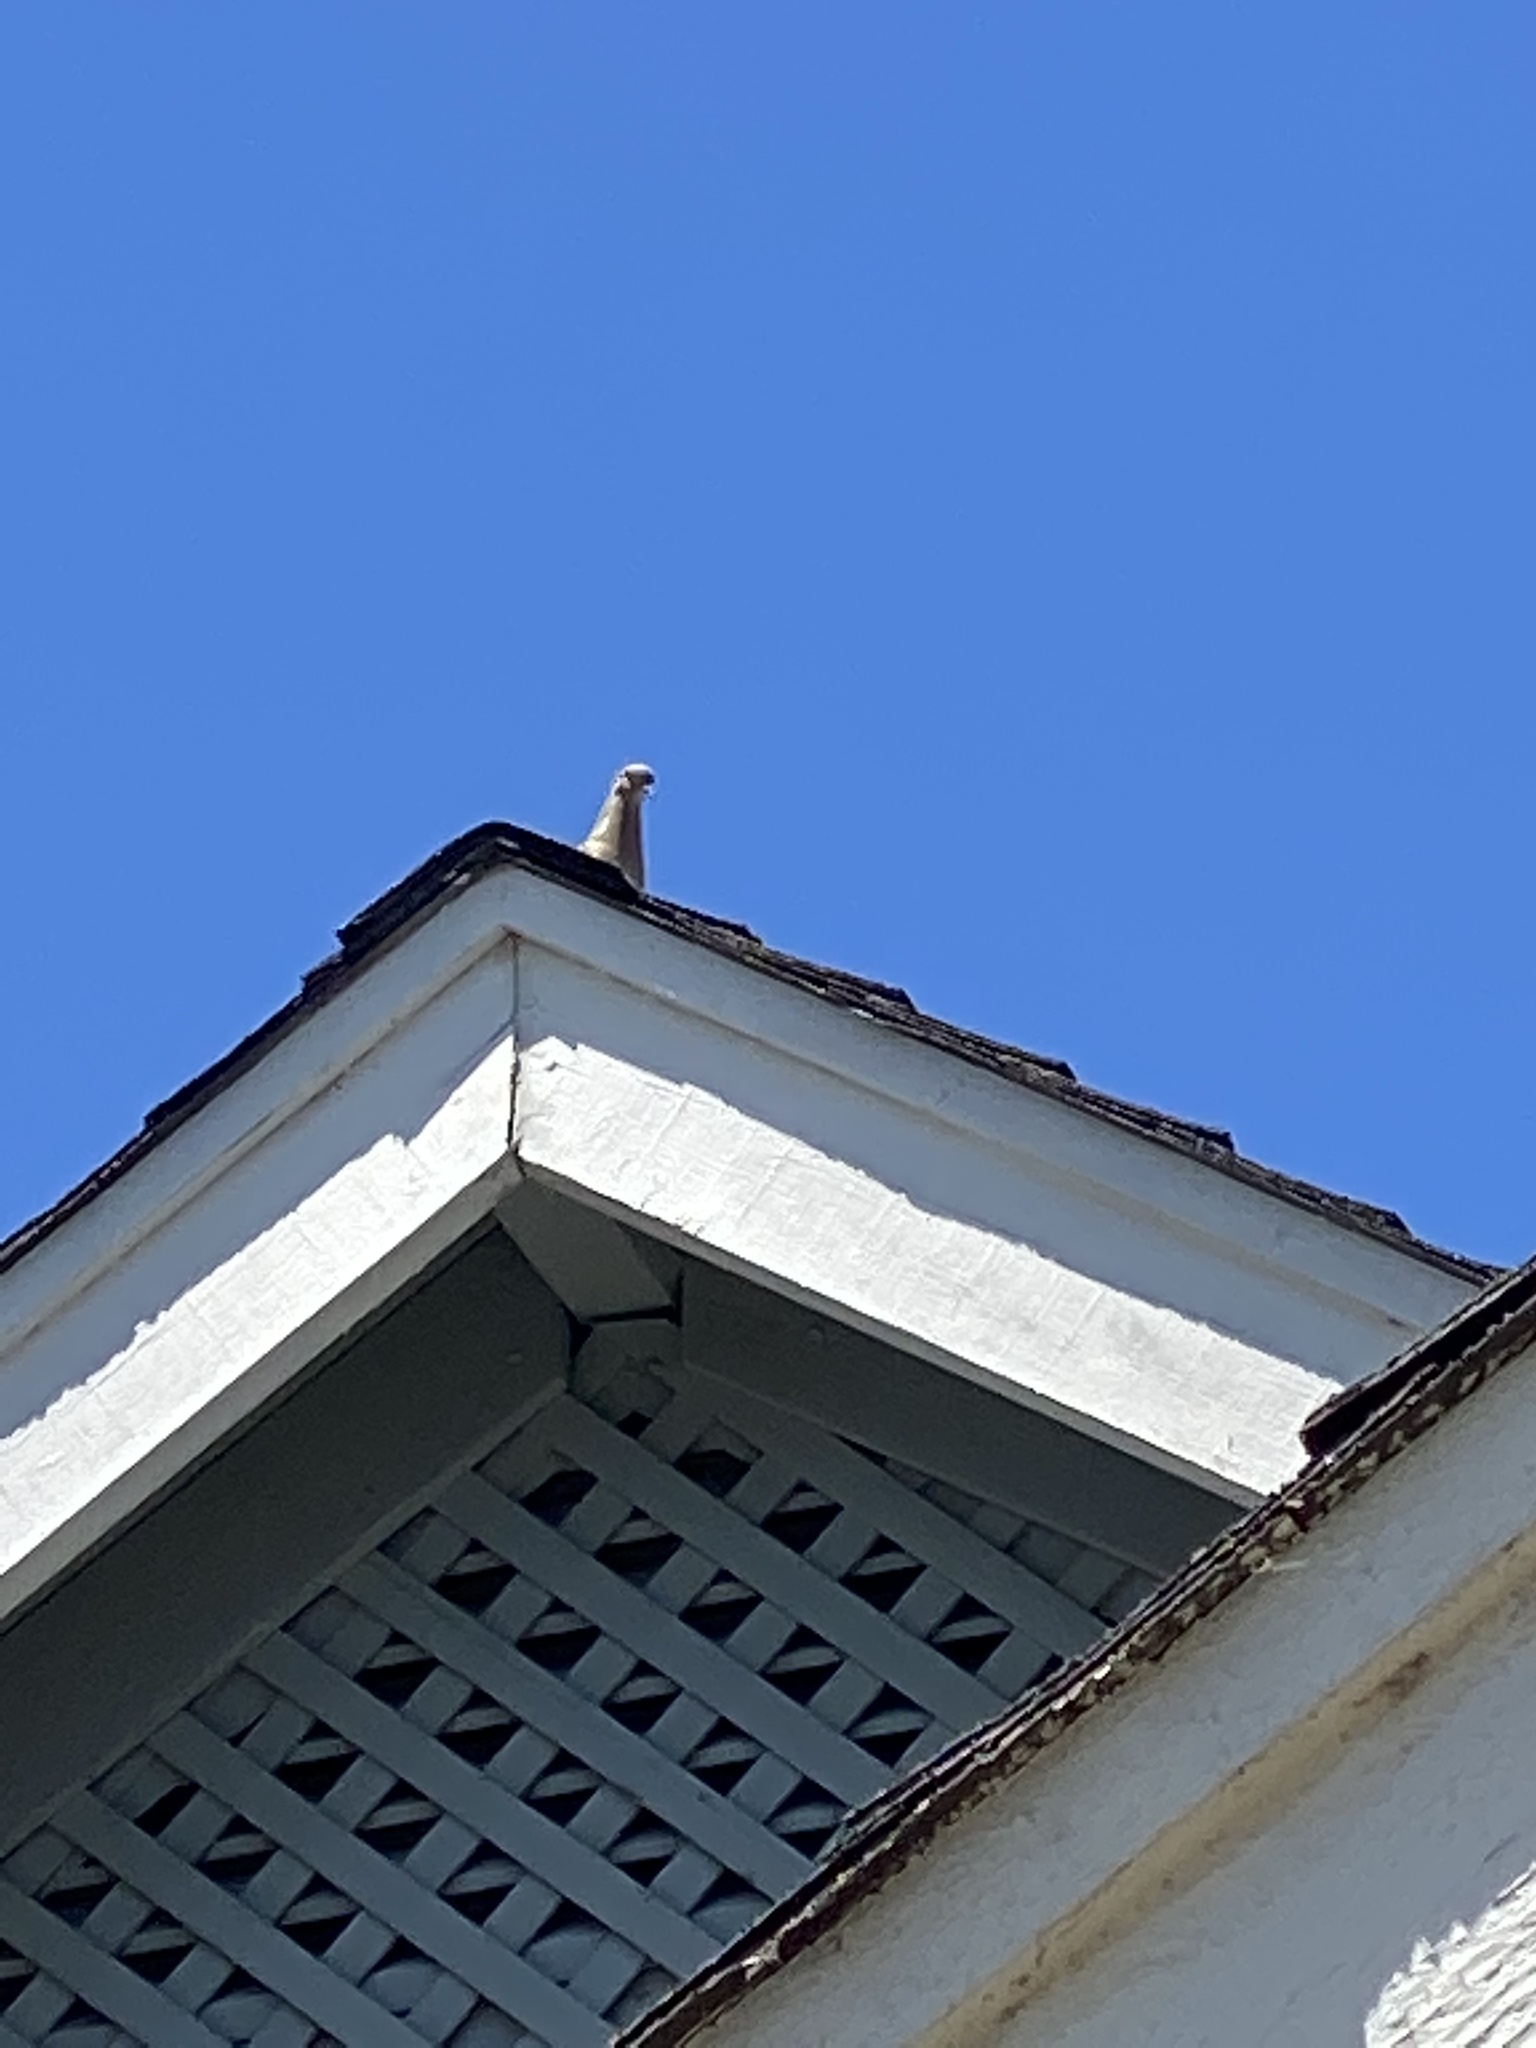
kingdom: Animalia
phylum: Chordata
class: Aves
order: Columbiformes
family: Columbidae
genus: Zenaida
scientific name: Zenaida macroura
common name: Mourning dove
